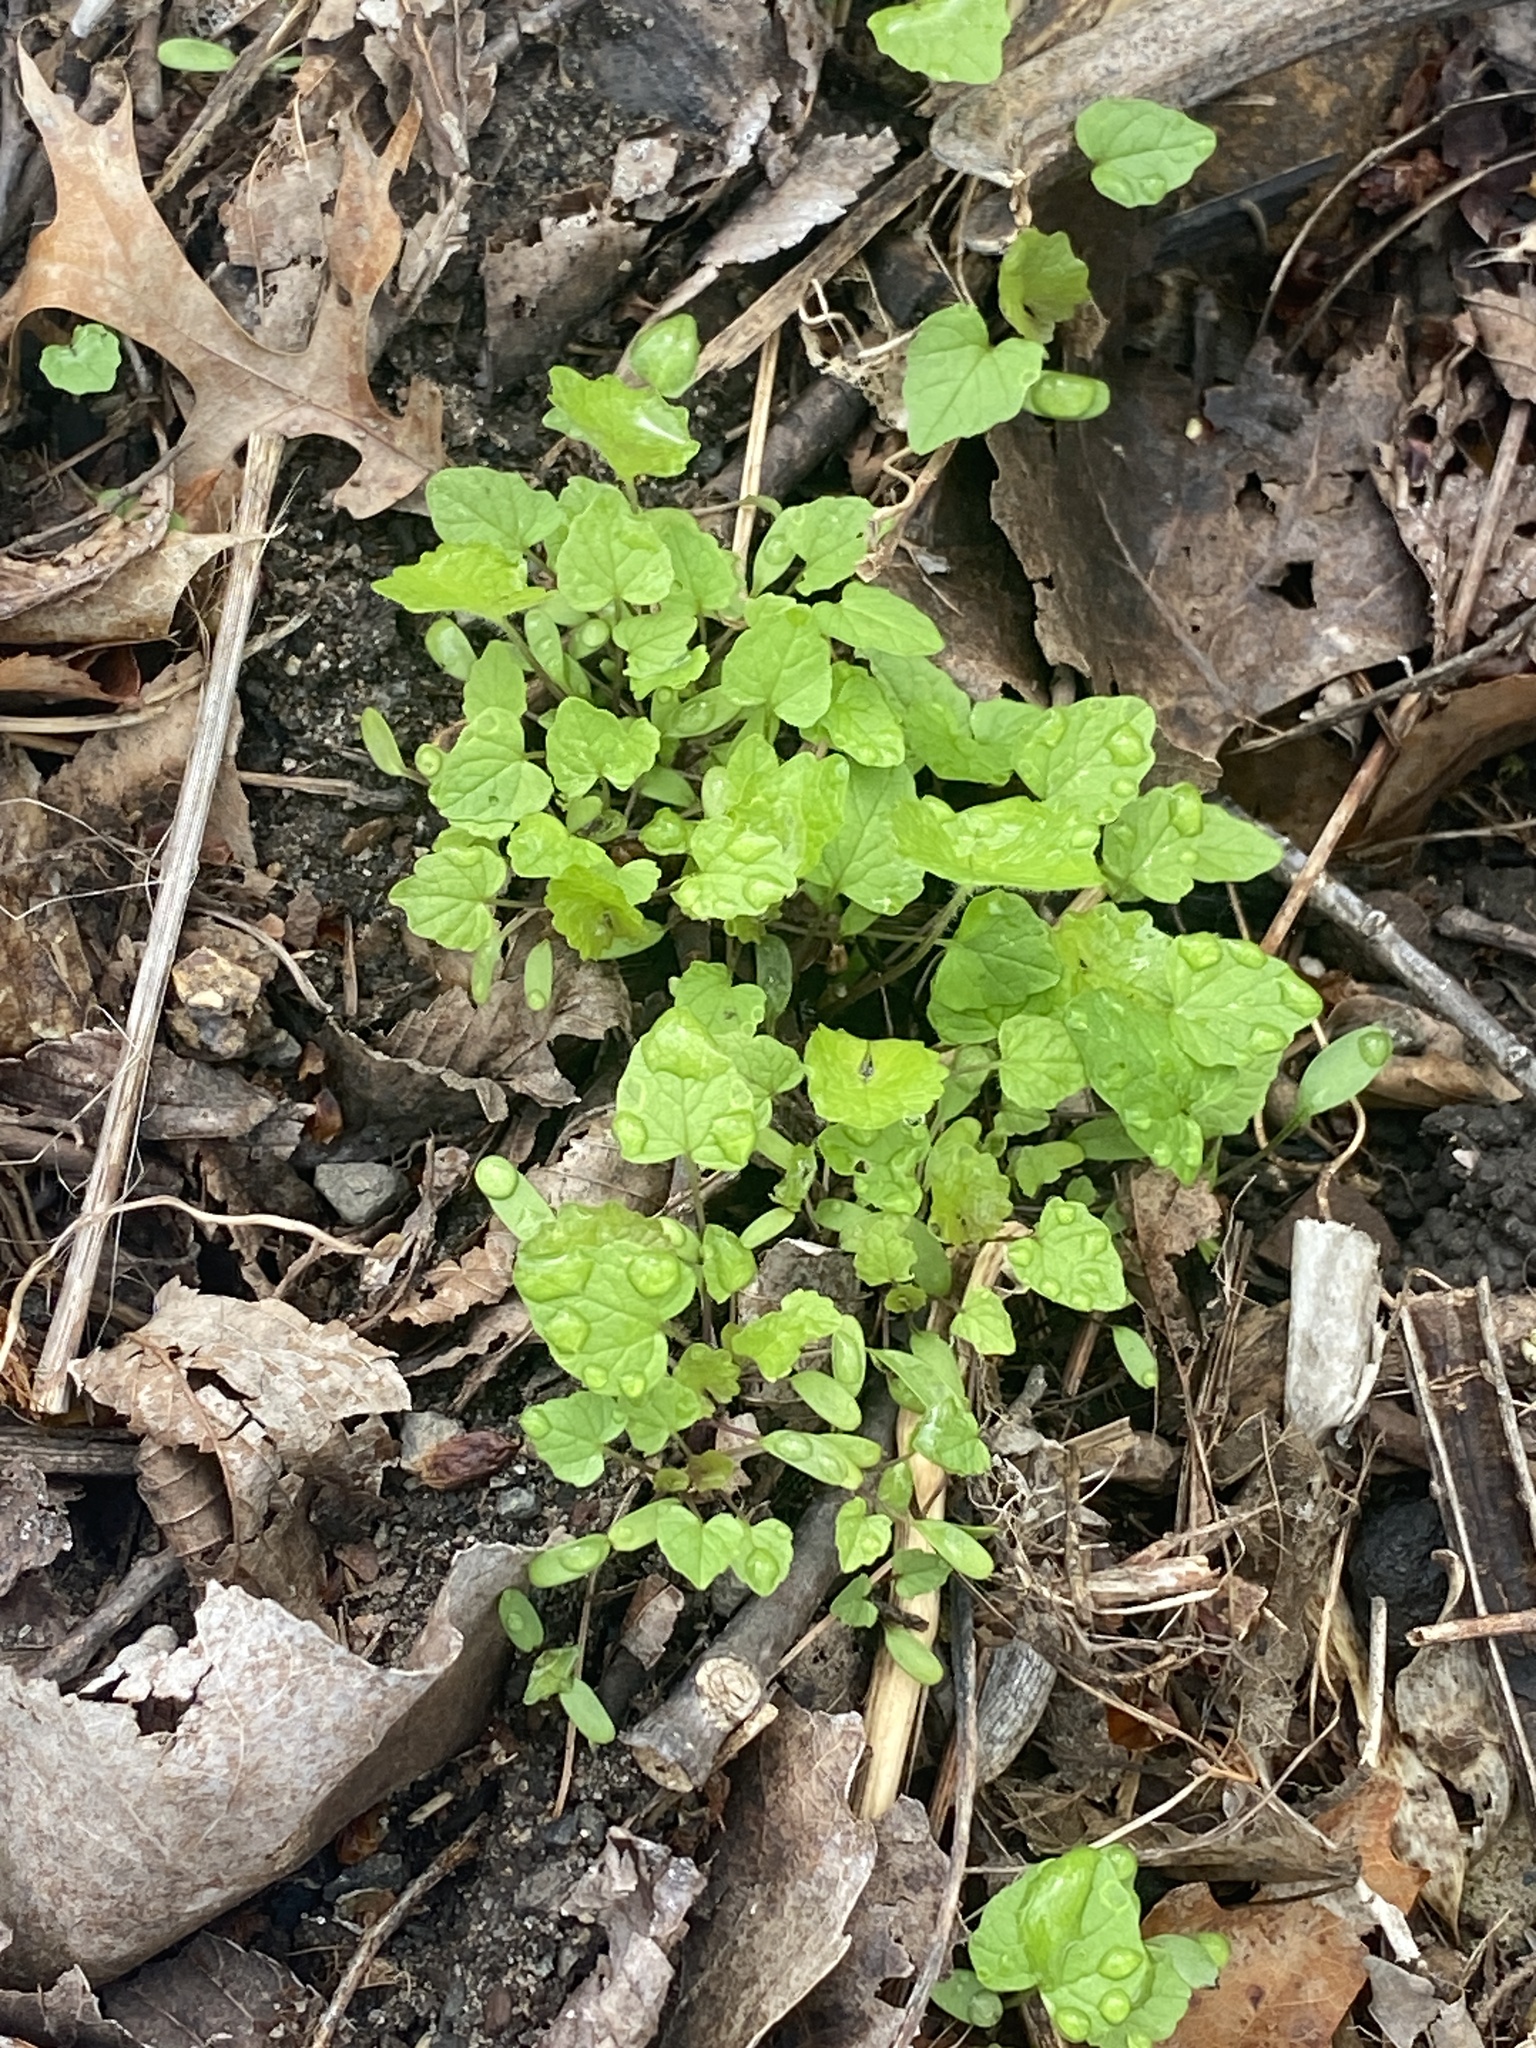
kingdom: Plantae
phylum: Tracheophyta
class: Magnoliopsida
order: Brassicales
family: Brassicaceae
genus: Alliaria
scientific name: Alliaria petiolata
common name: Garlic mustard
